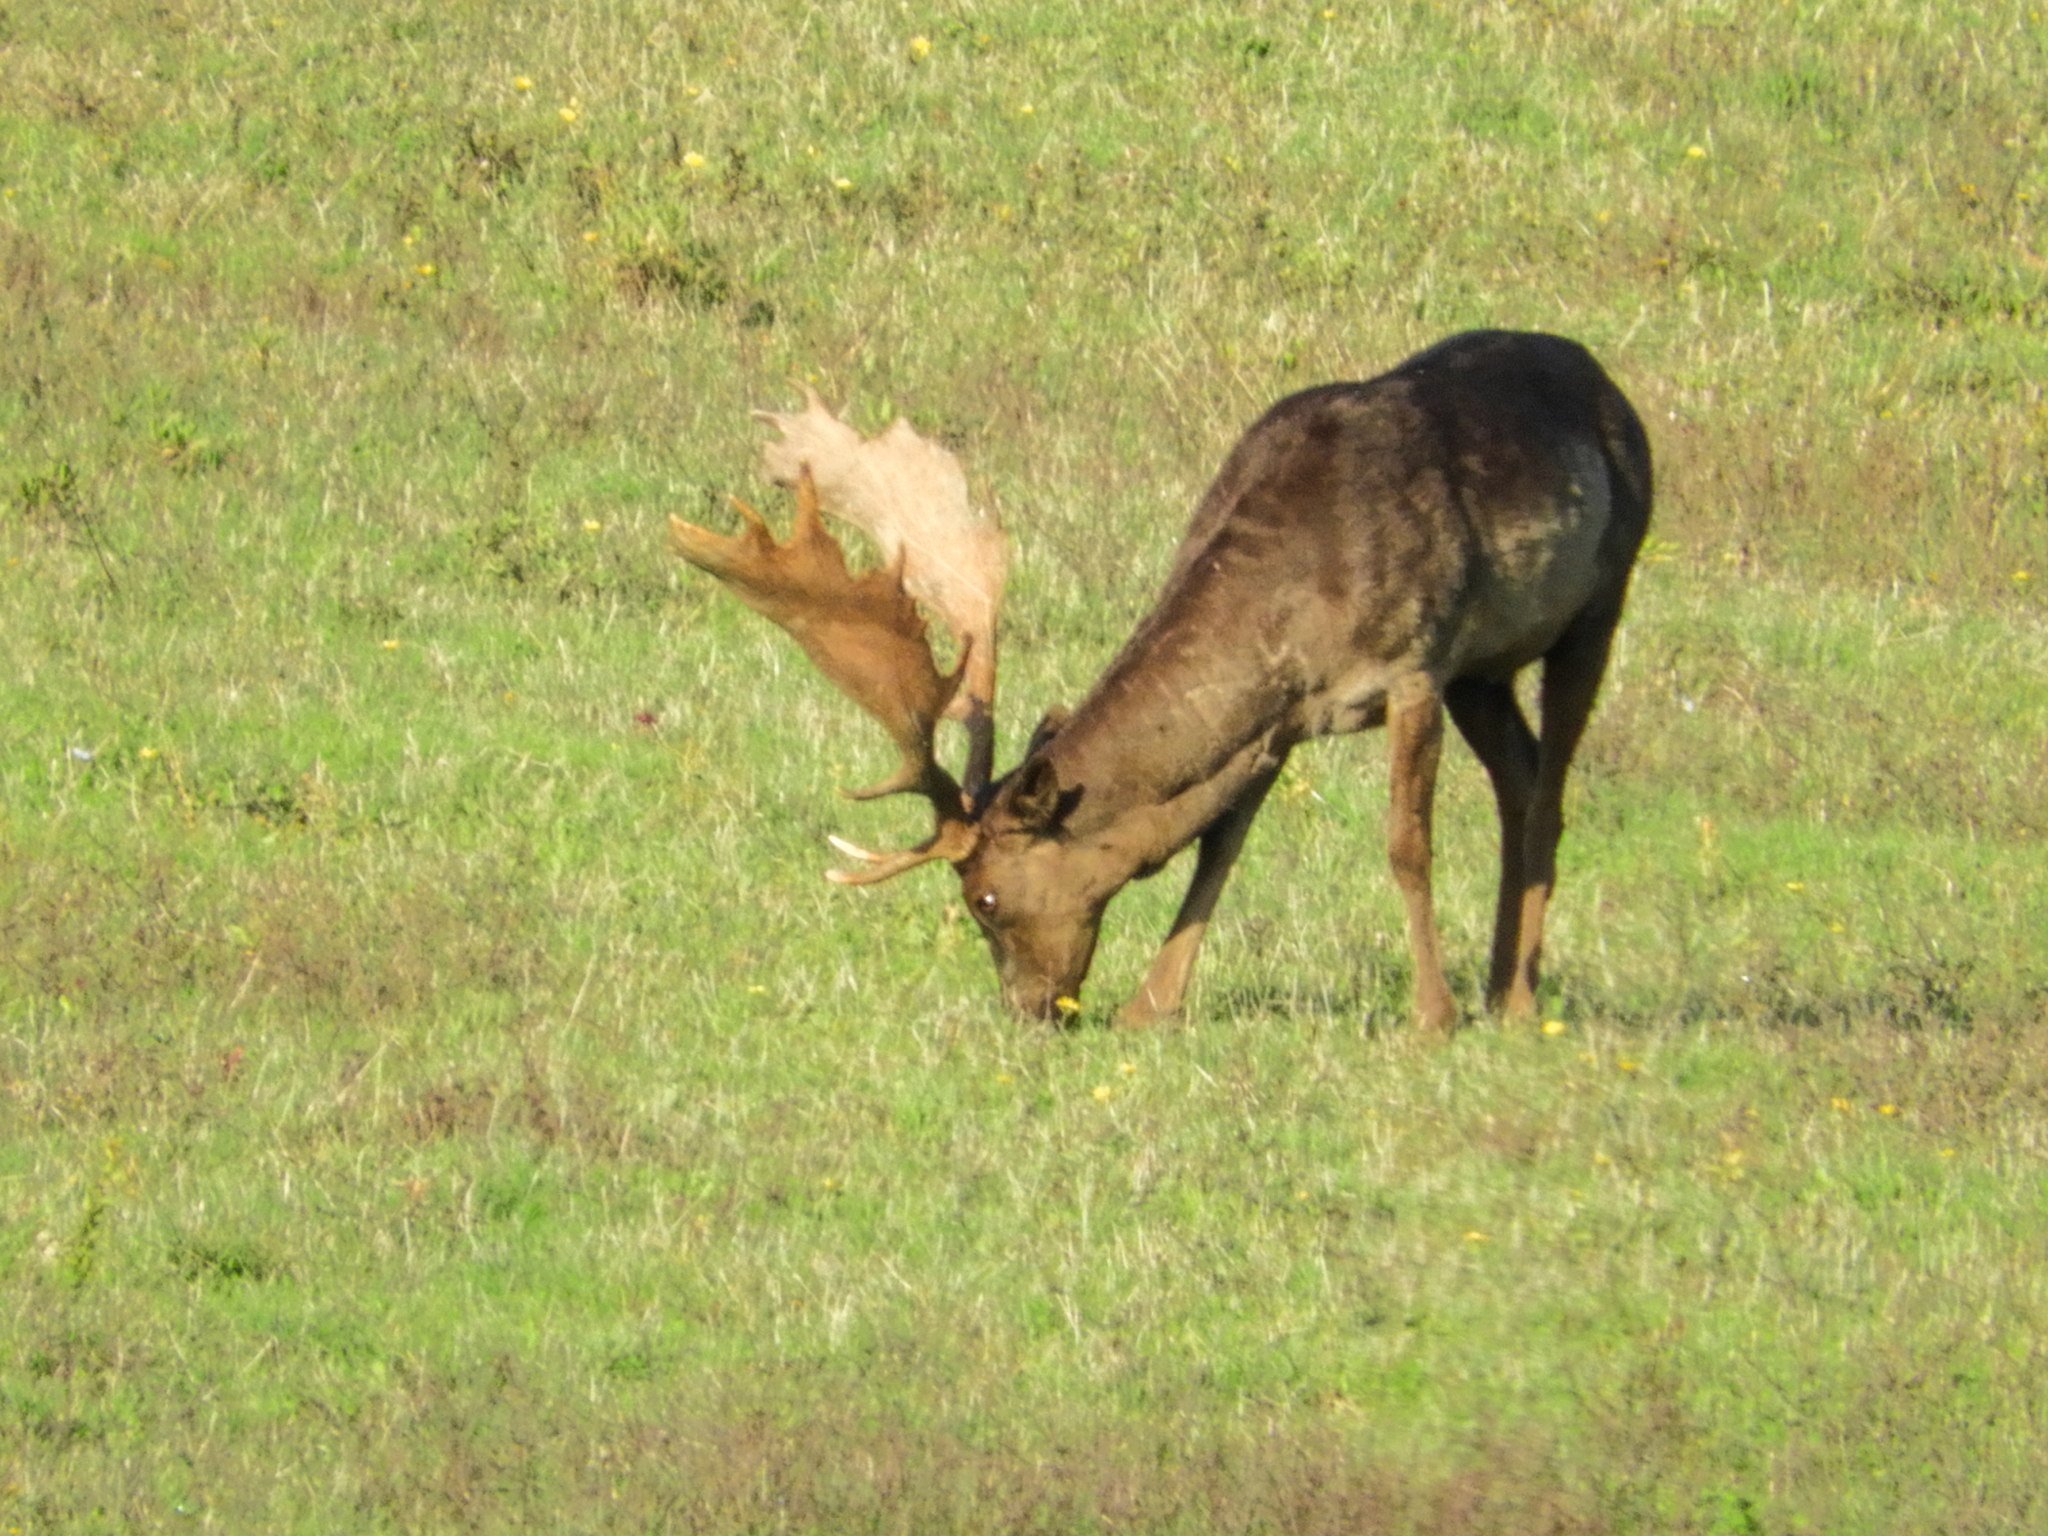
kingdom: Animalia
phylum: Chordata
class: Mammalia
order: Artiodactyla
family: Cervidae
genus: Dama
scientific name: Dama dama
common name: Fallow deer
